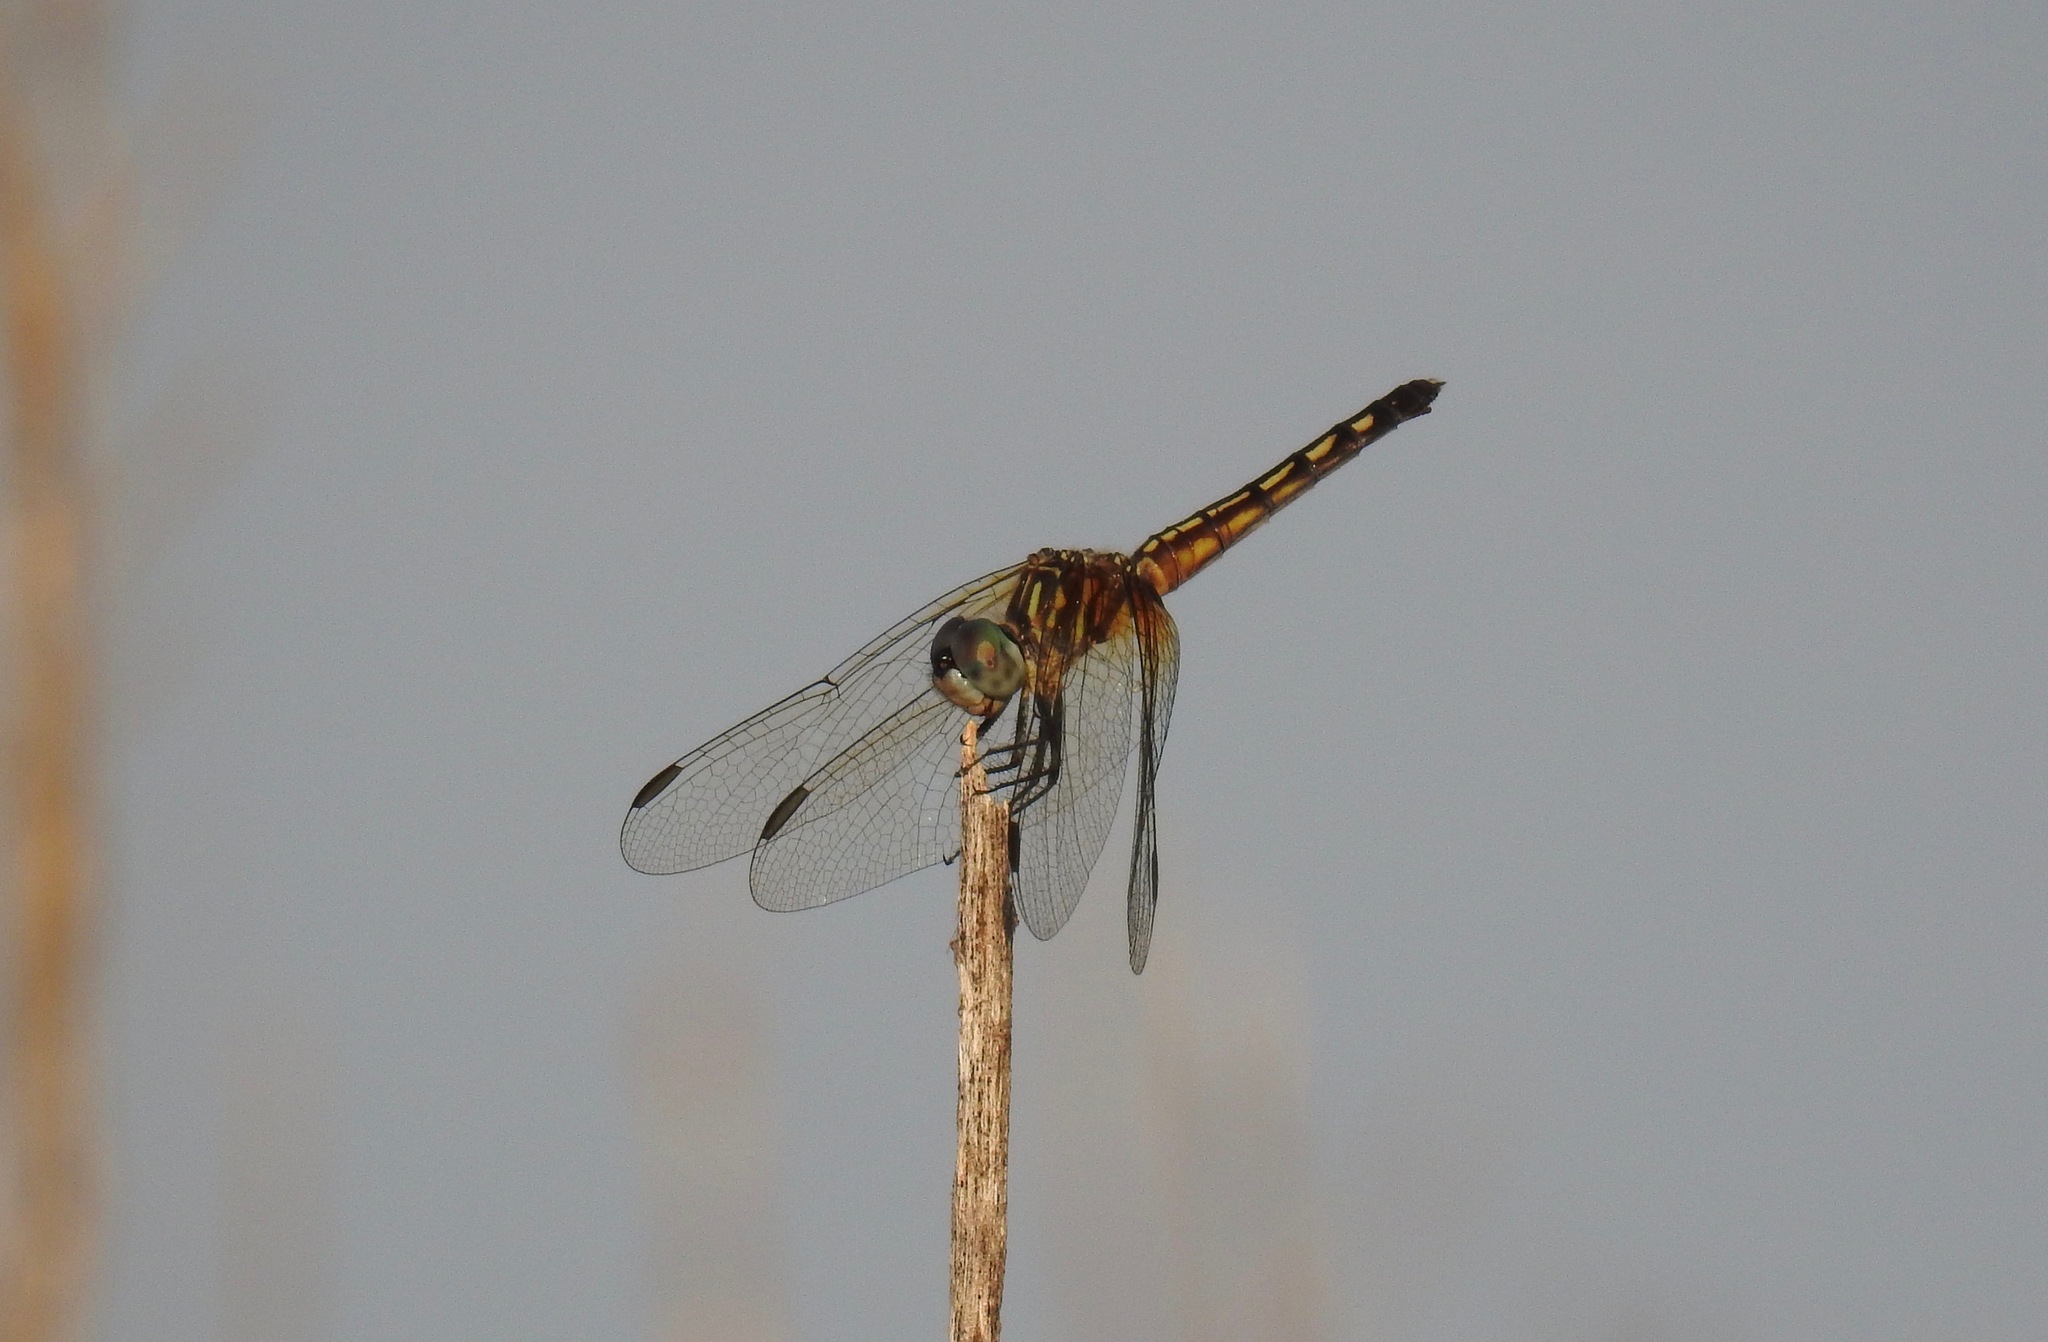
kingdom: Animalia
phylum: Arthropoda
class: Insecta
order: Odonata
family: Libellulidae
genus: Pachydiplax
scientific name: Pachydiplax longipennis
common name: Blue dasher
